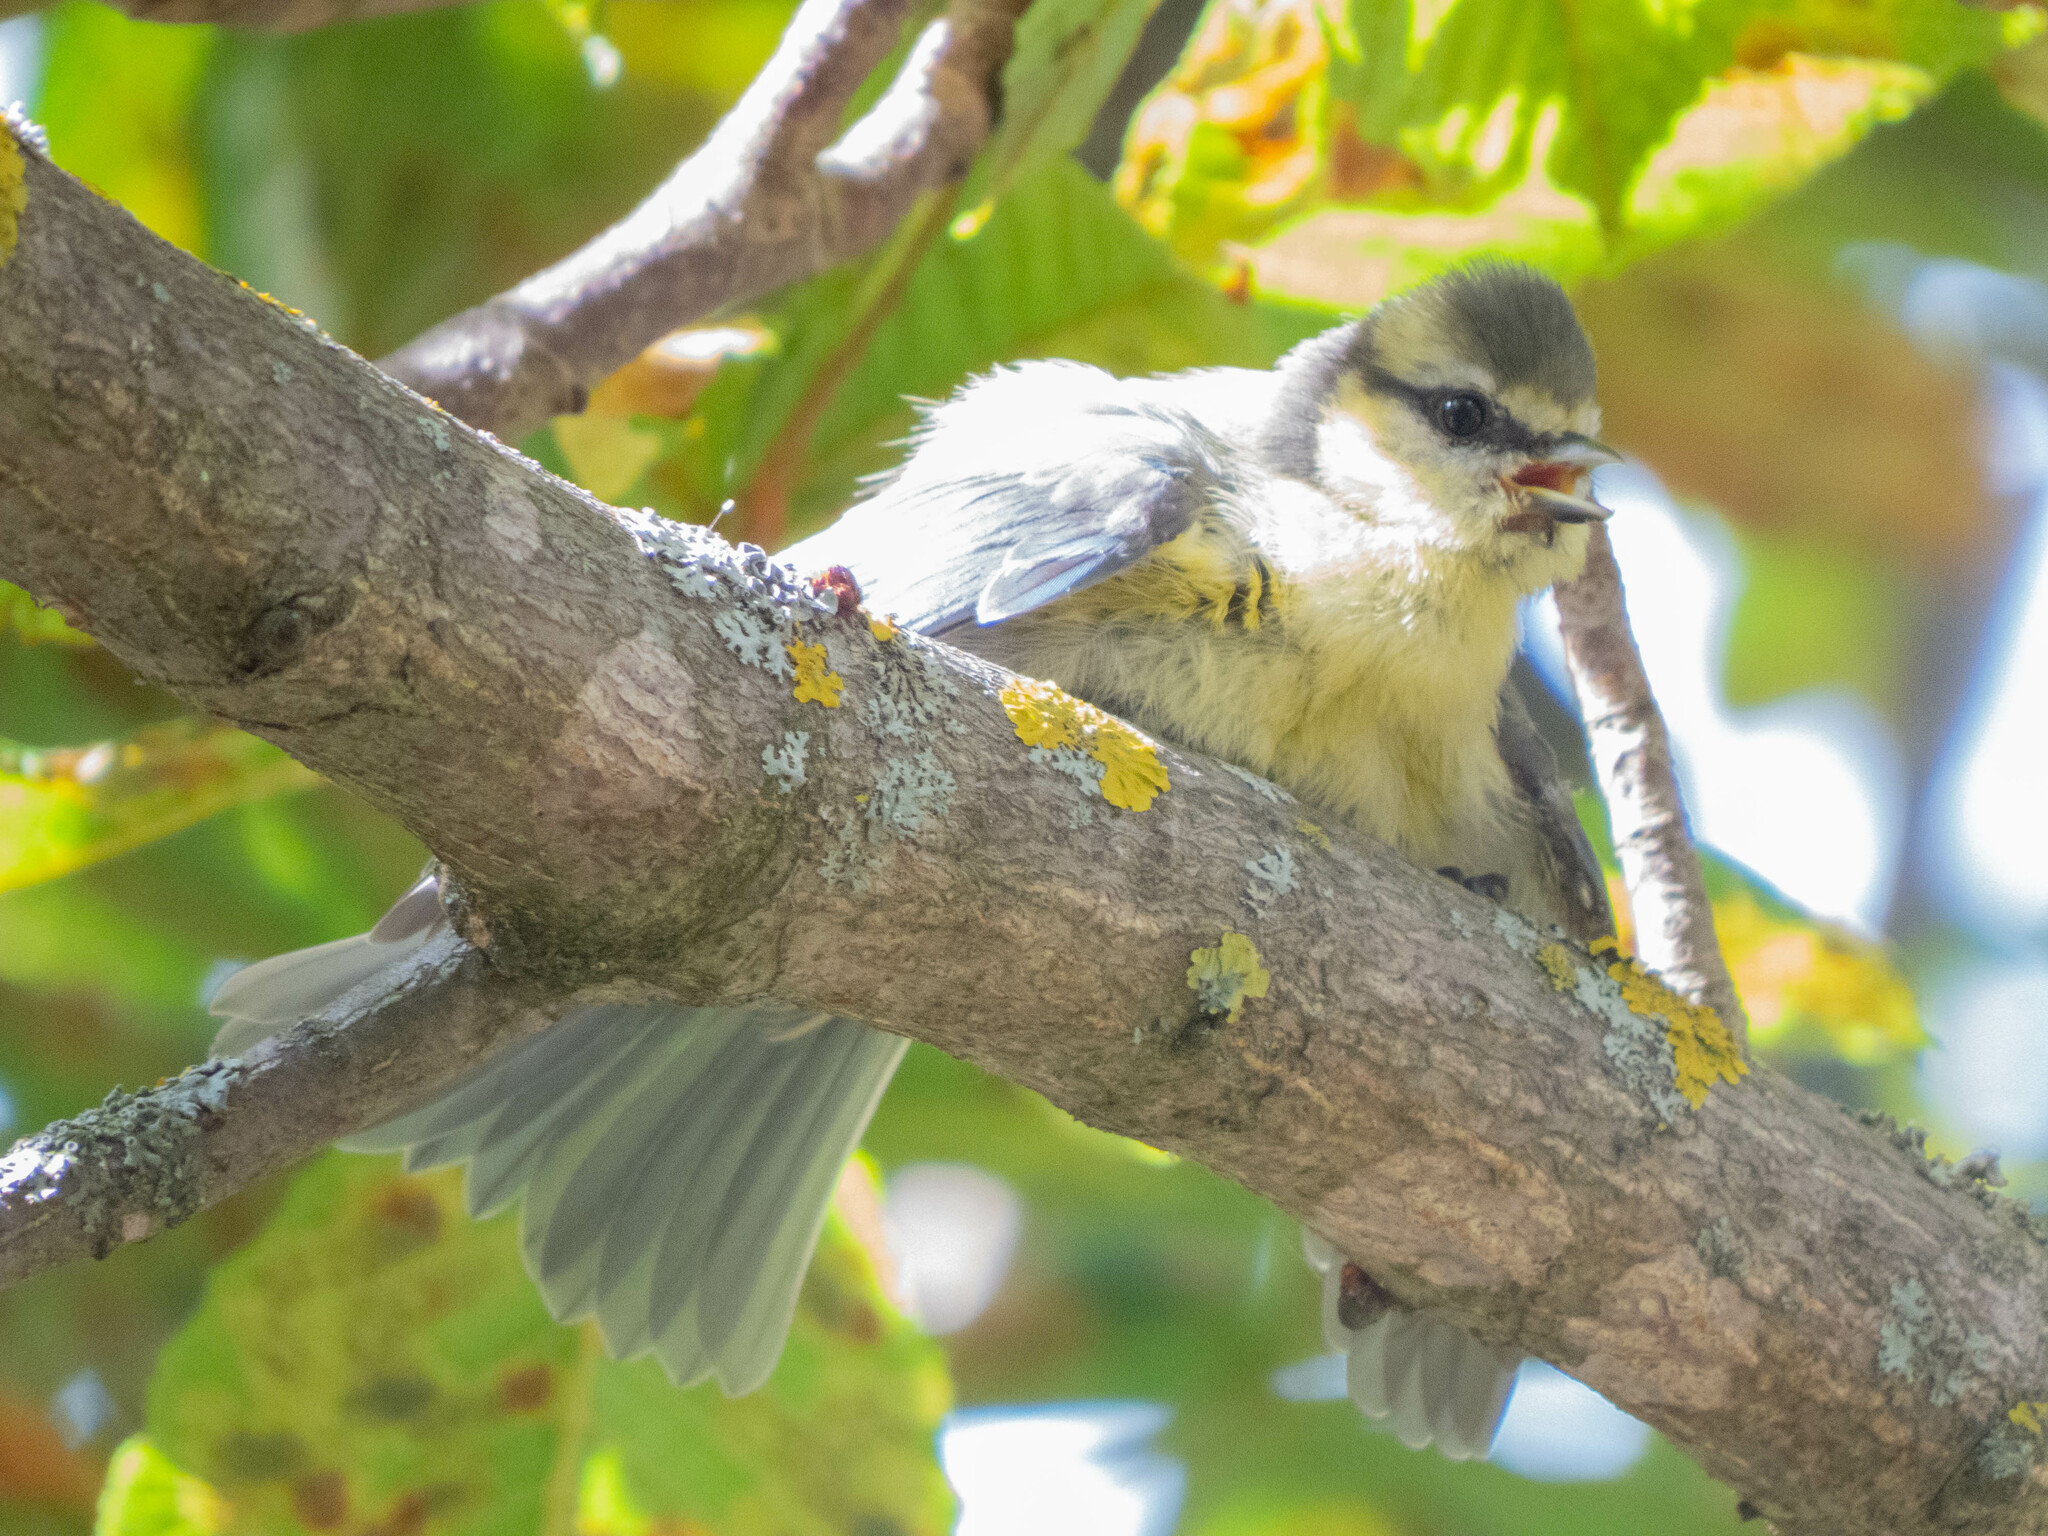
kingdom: Animalia
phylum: Chordata
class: Aves
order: Passeriformes
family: Paridae
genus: Cyanistes
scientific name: Cyanistes caeruleus
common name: Eurasian blue tit
